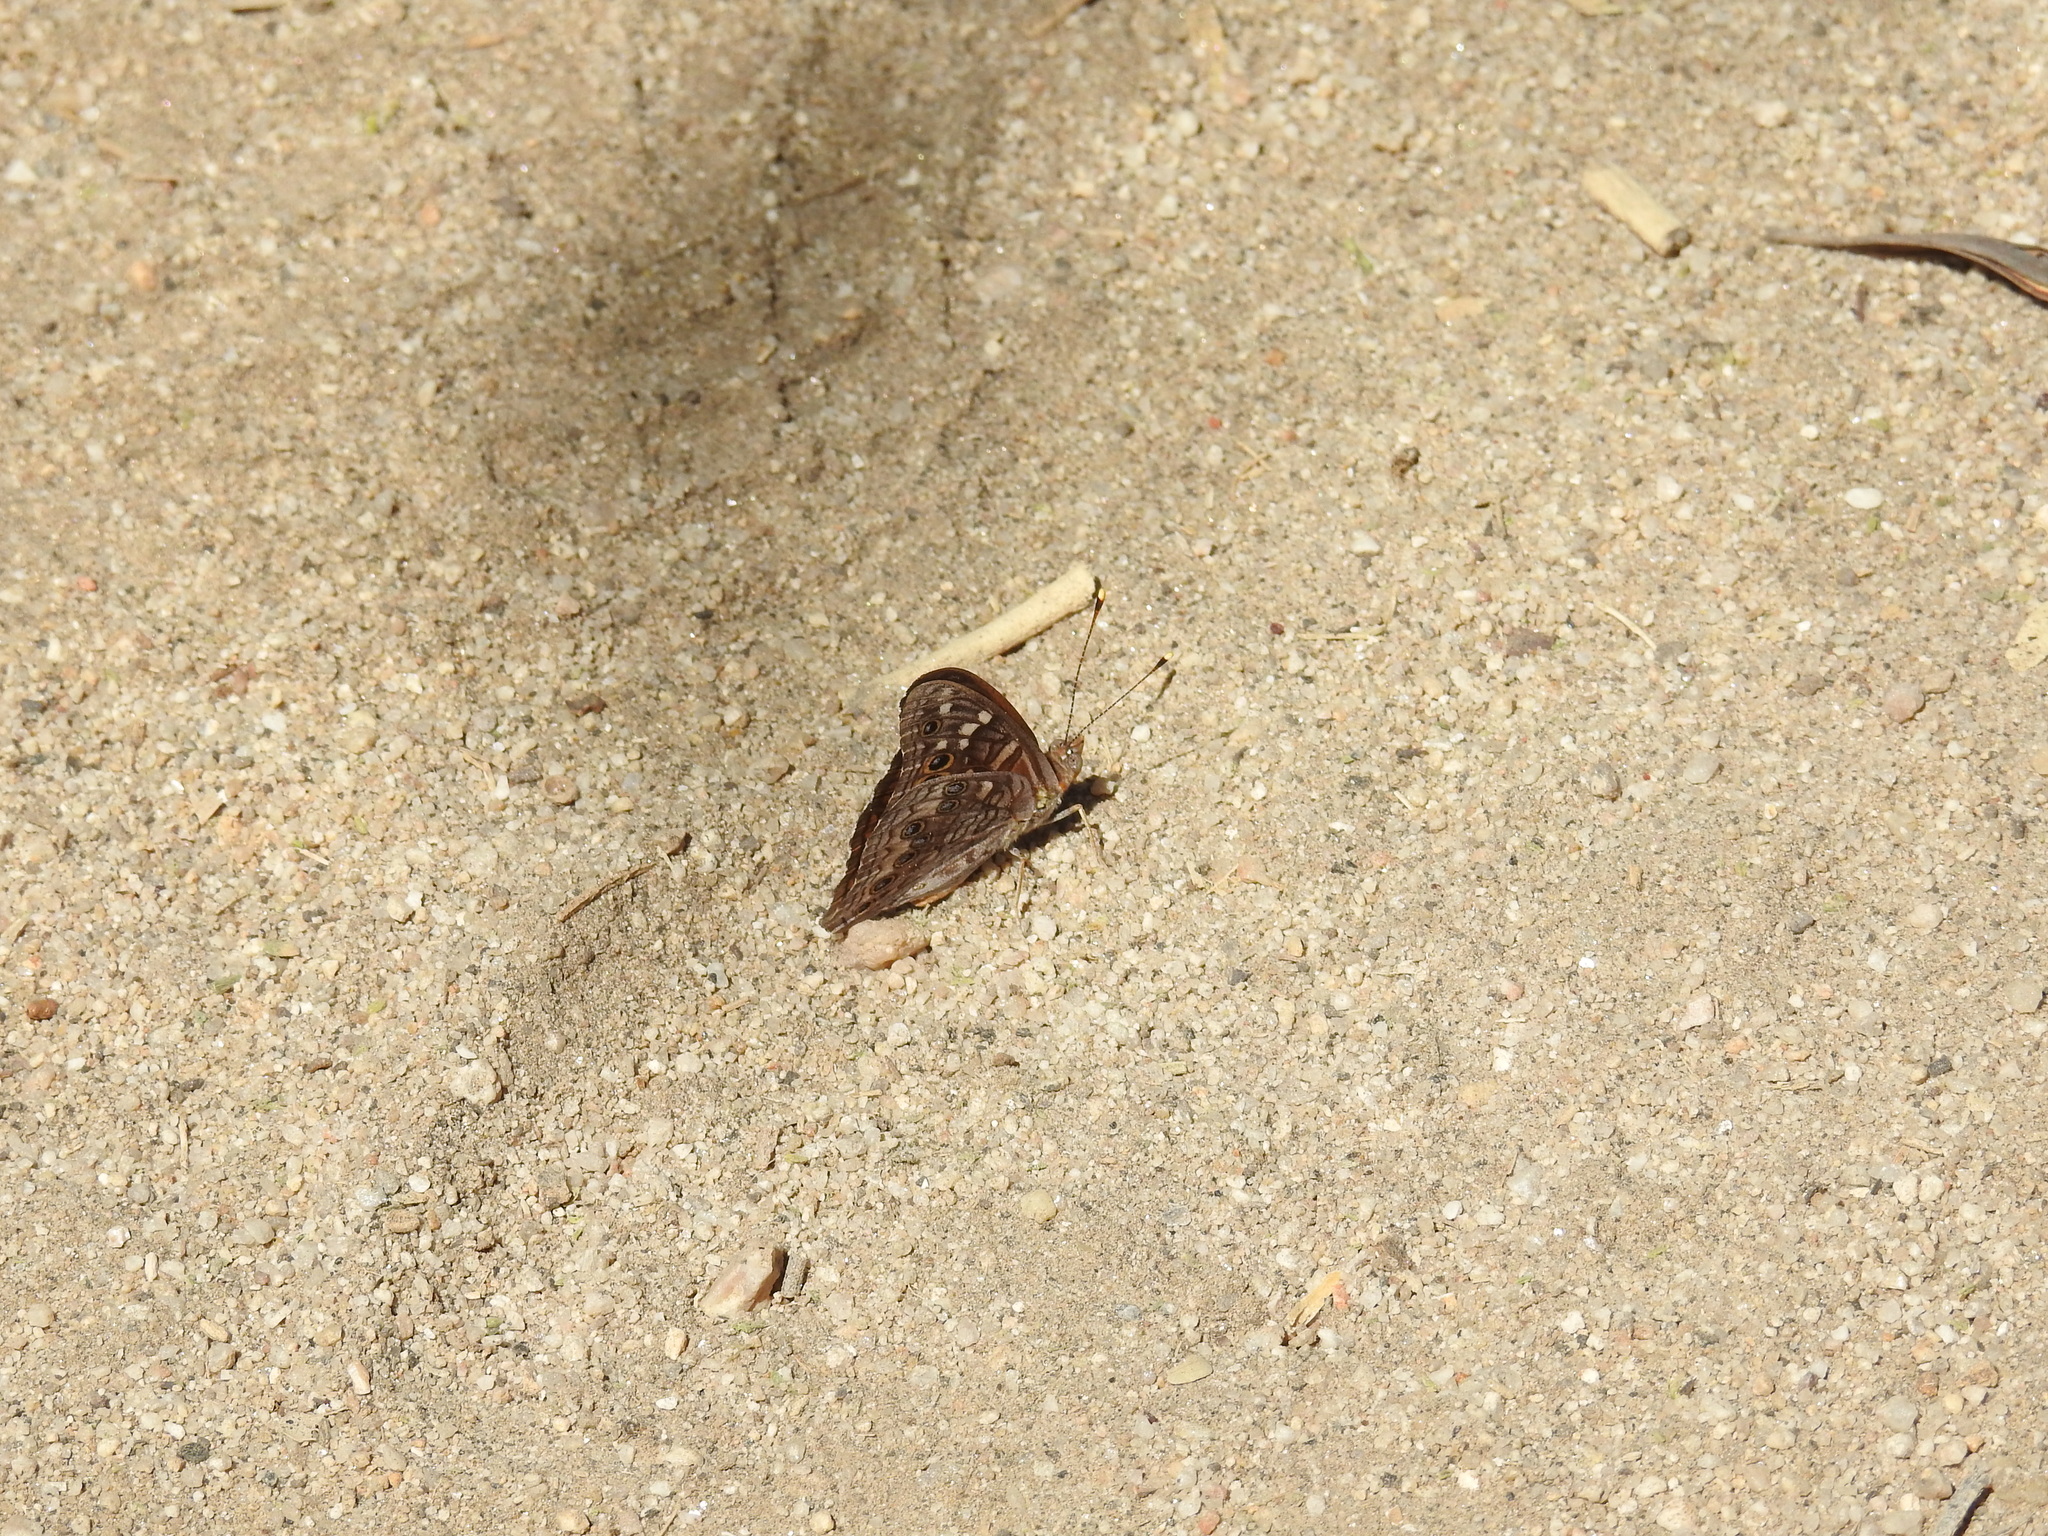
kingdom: Animalia
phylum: Arthropoda
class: Insecta
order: Lepidoptera
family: Nymphalidae
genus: Asterocampa
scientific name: Asterocampa leilia
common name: Empress leilia
